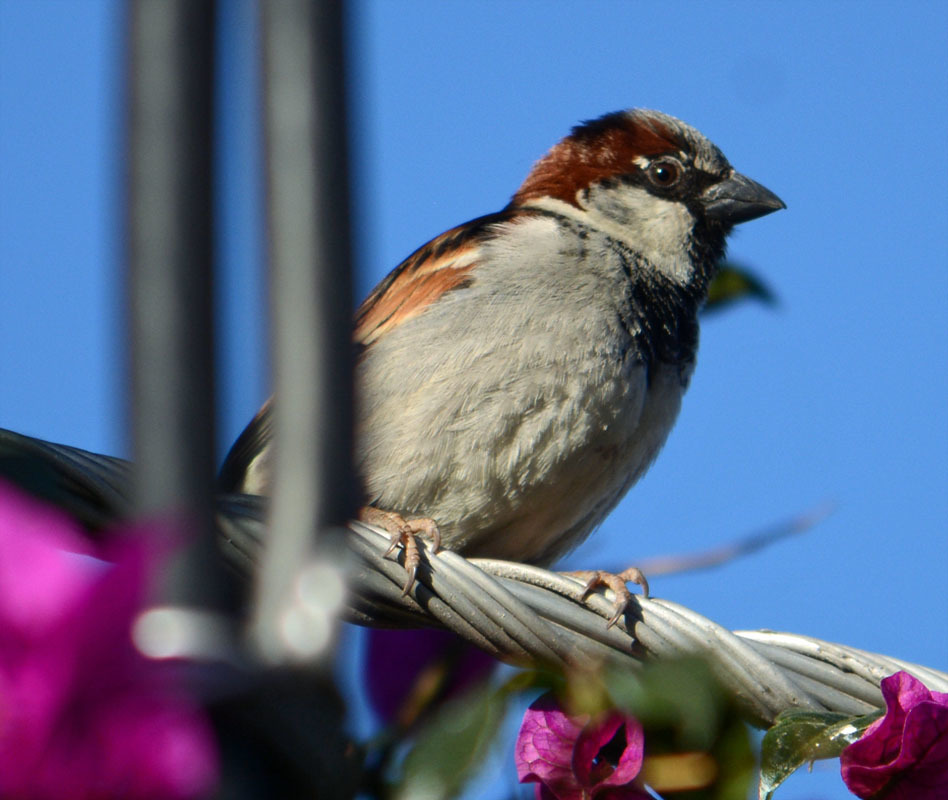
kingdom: Animalia
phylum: Chordata
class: Aves
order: Passeriformes
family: Passeridae
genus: Passer
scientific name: Passer domesticus
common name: House sparrow
